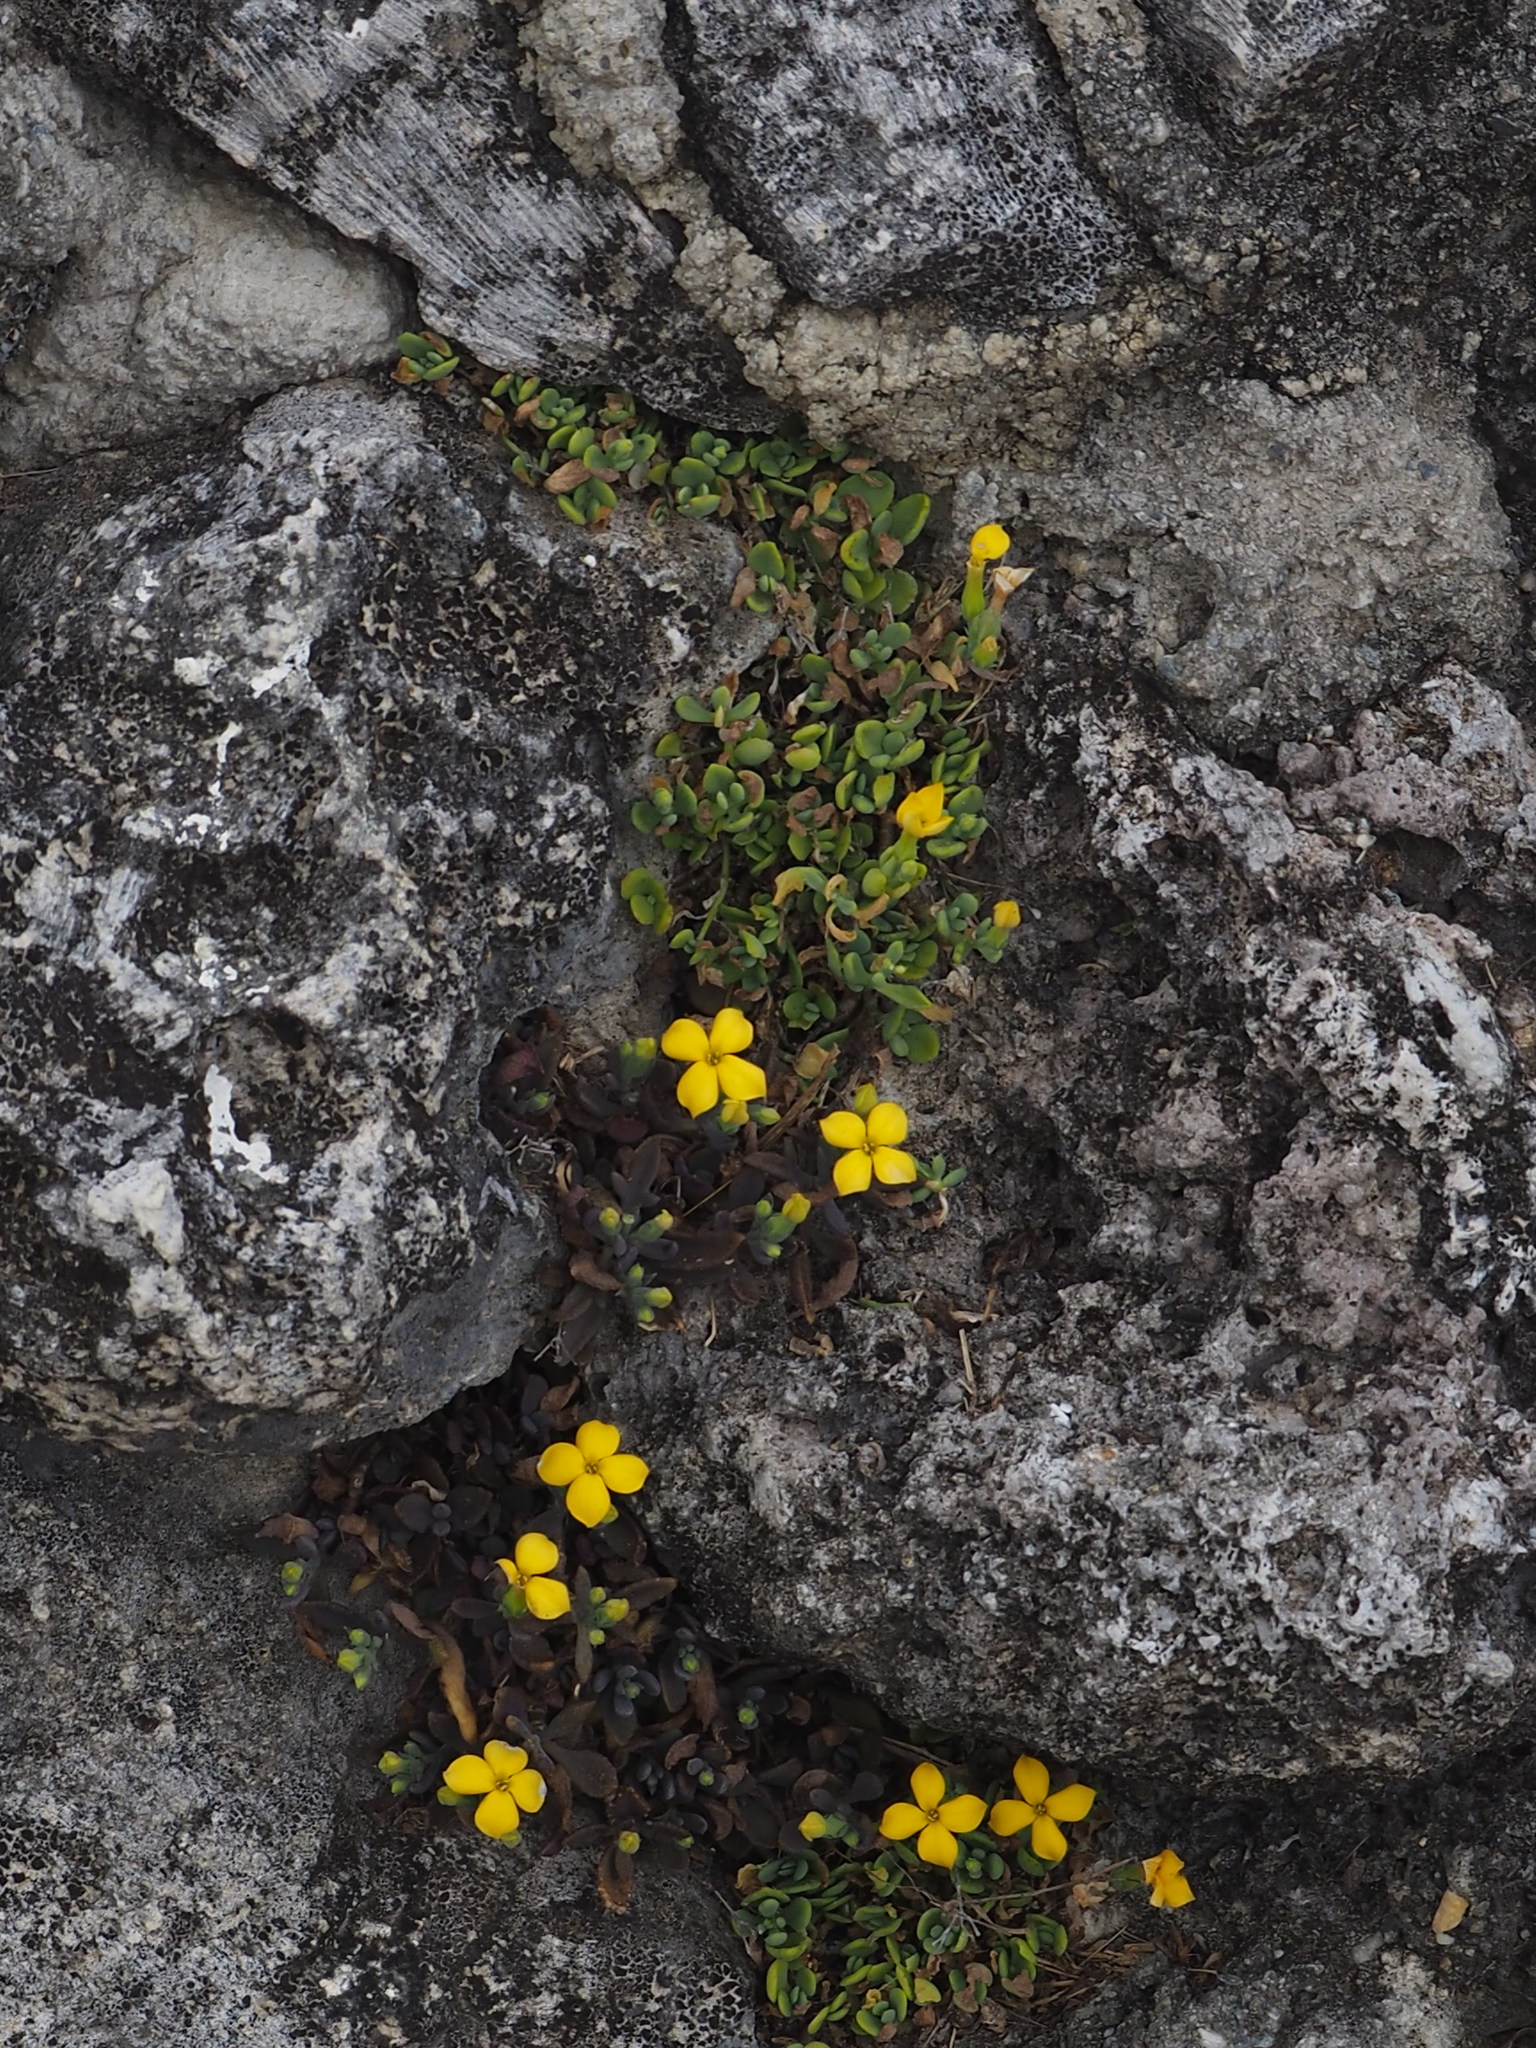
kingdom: Plantae
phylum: Tracheophyta
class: Magnoliopsida
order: Saxifragales
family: Crassulaceae
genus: Kalanchoe
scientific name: Kalanchoe integra
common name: Neverdie
